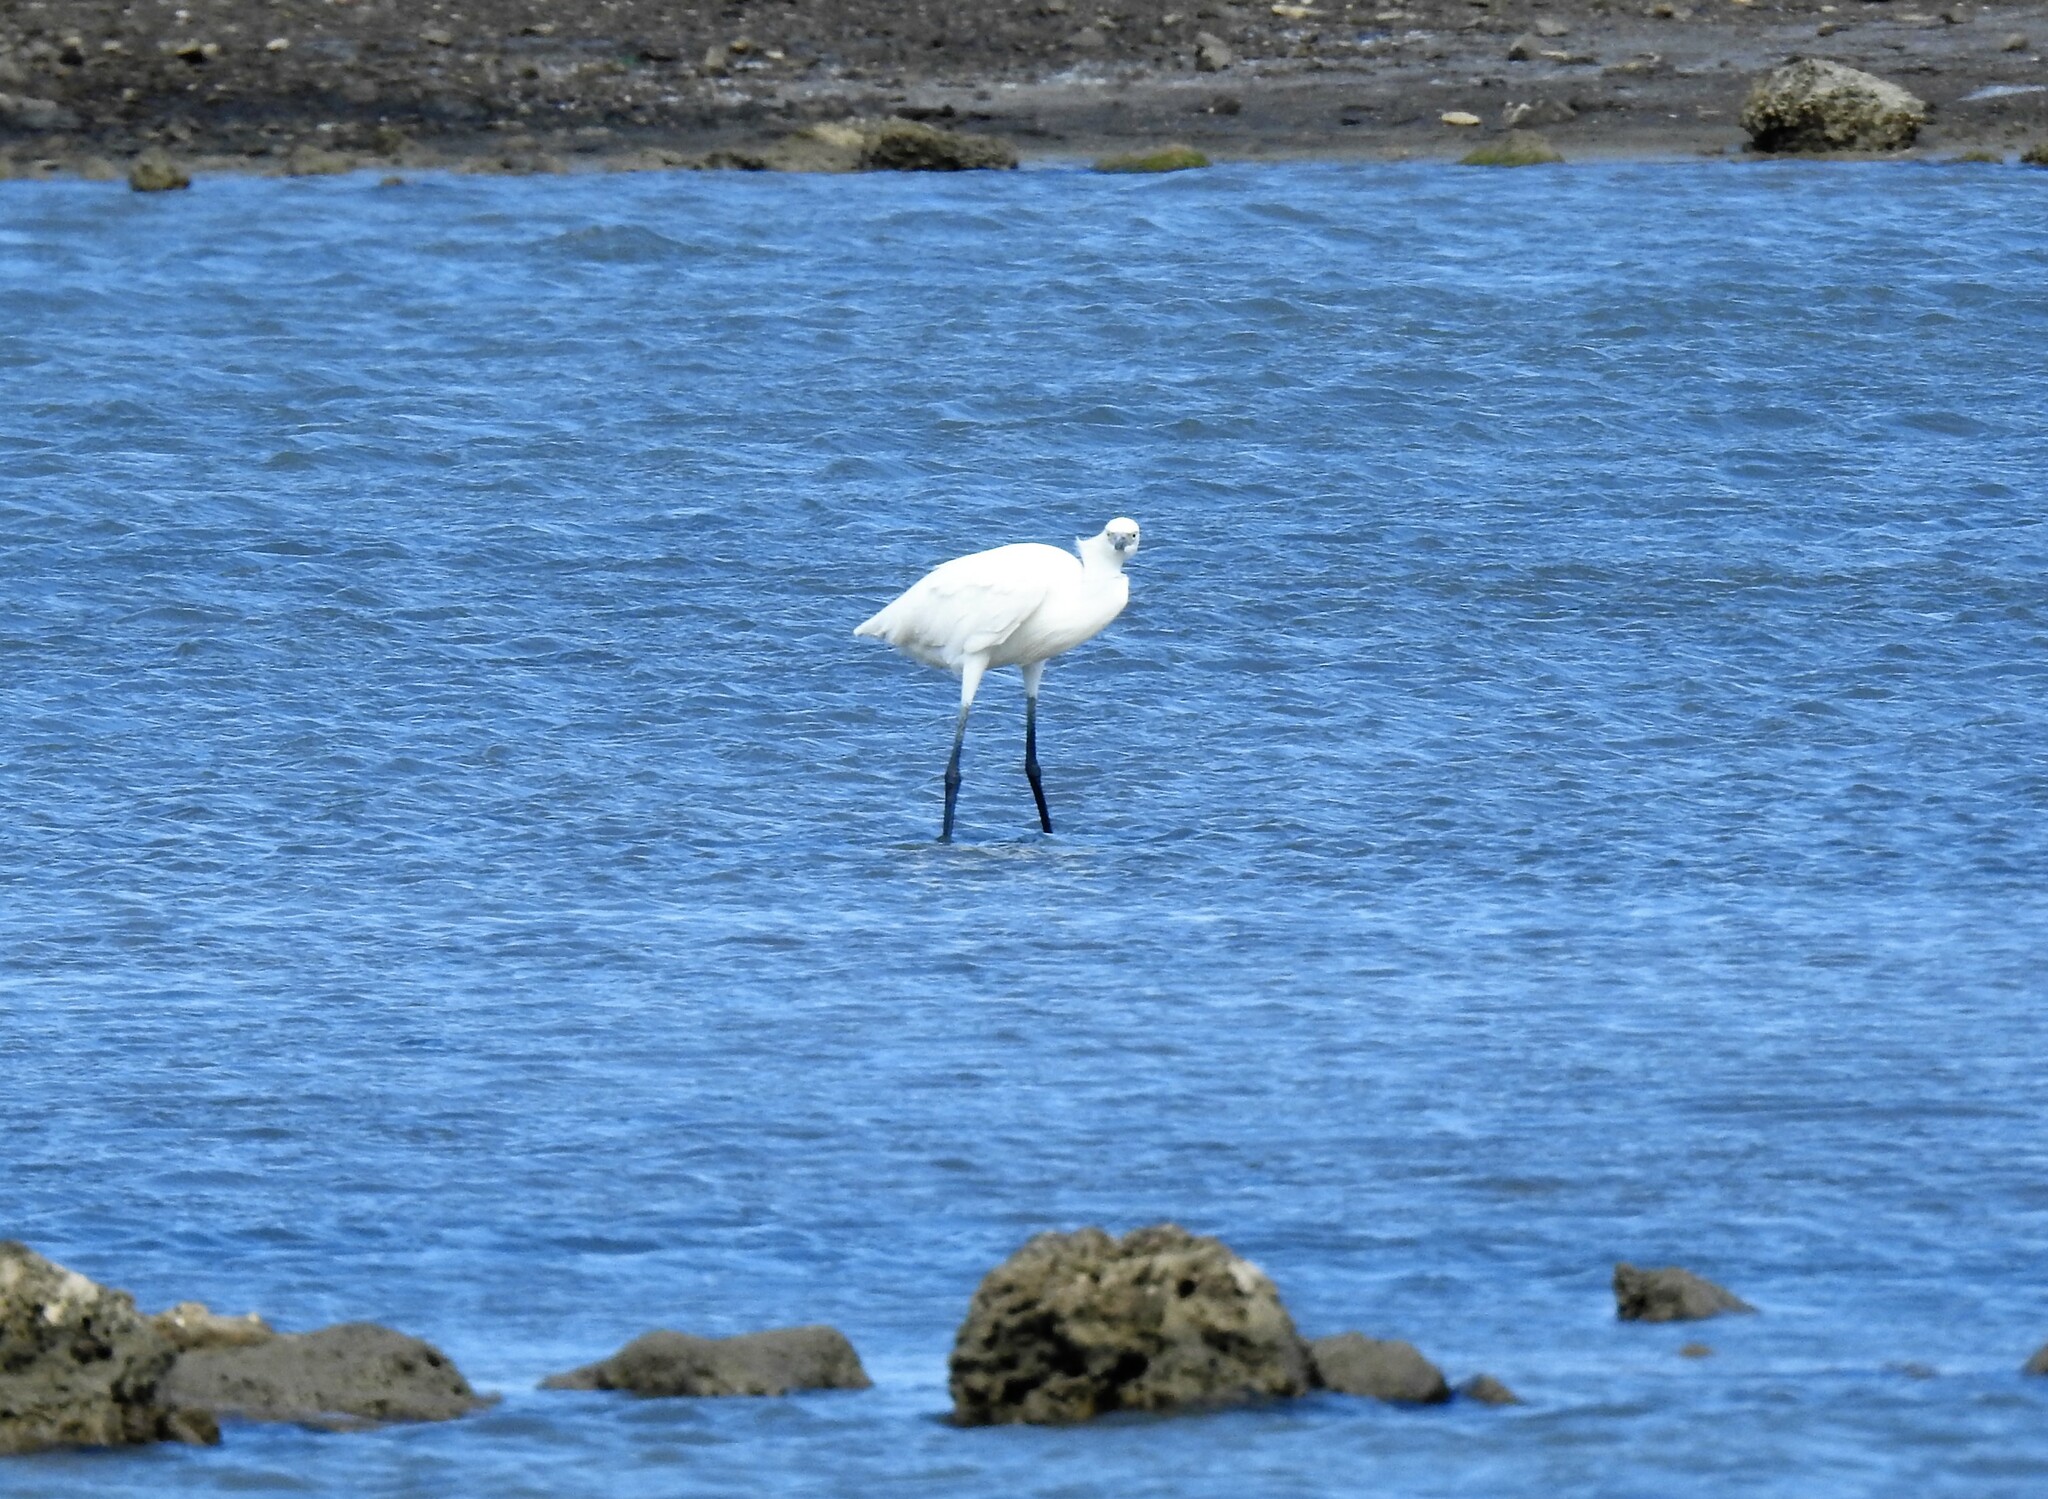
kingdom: Animalia
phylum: Chordata
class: Aves
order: Pelecaniformes
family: Ardeidae
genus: Egretta
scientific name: Egretta rufescens
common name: Reddish egret
